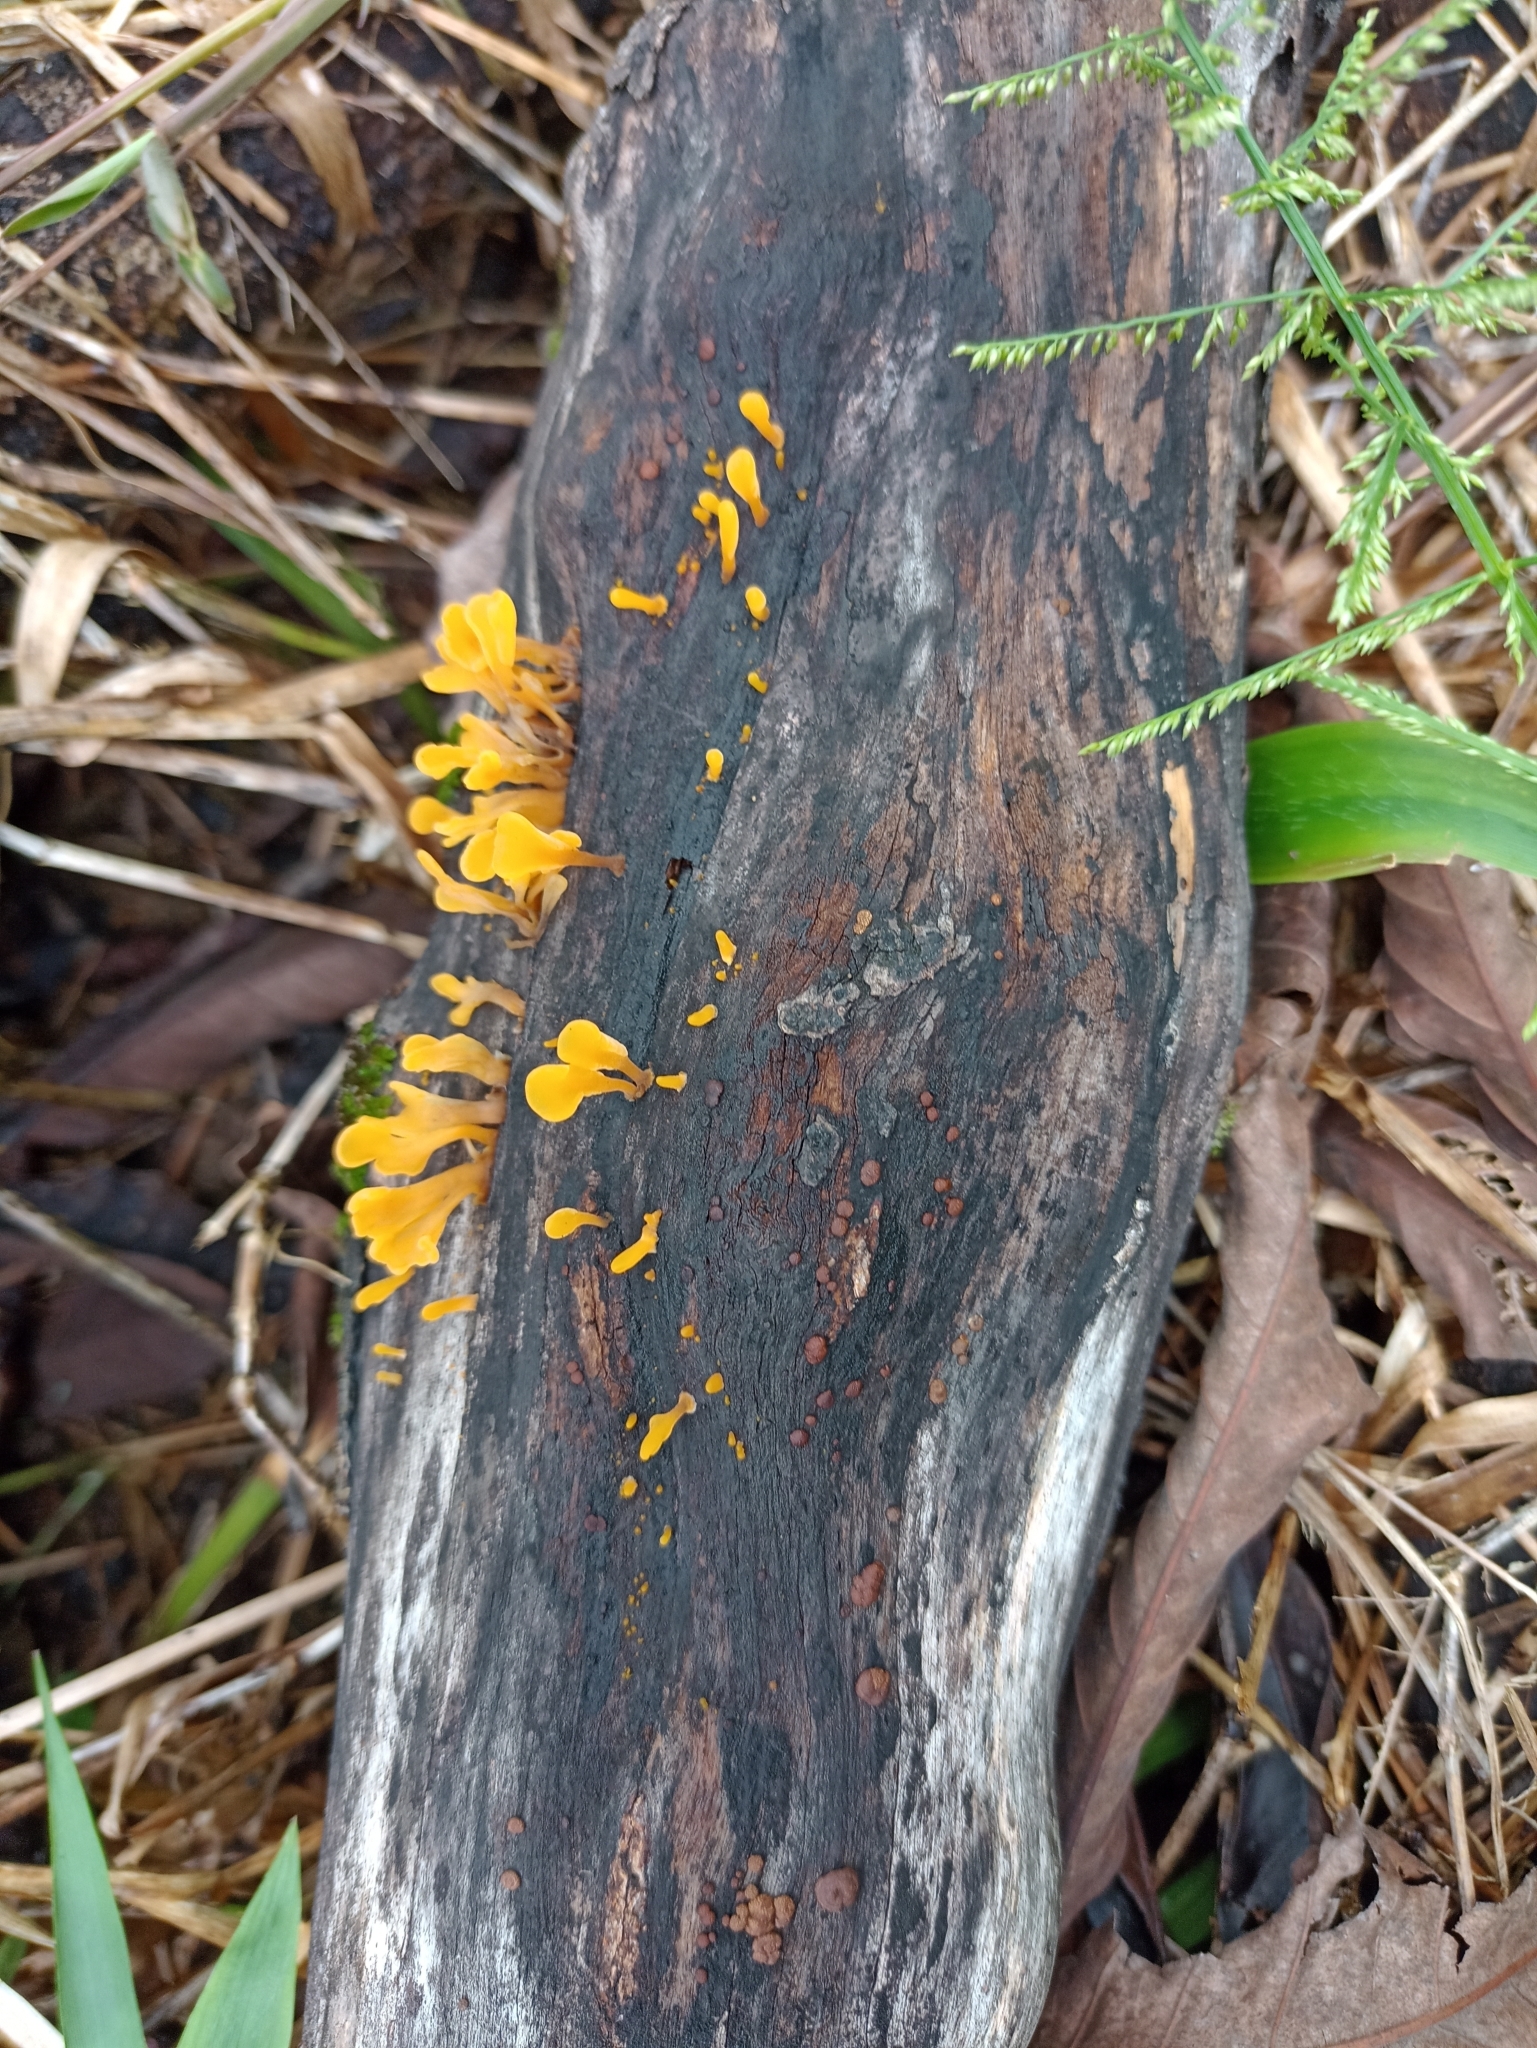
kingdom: Fungi
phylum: Basidiomycota
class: Dacrymycetes
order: Dacrymycetales
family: Dacrymycetaceae
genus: Dacrymyces
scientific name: Dacrymyces spathularius
